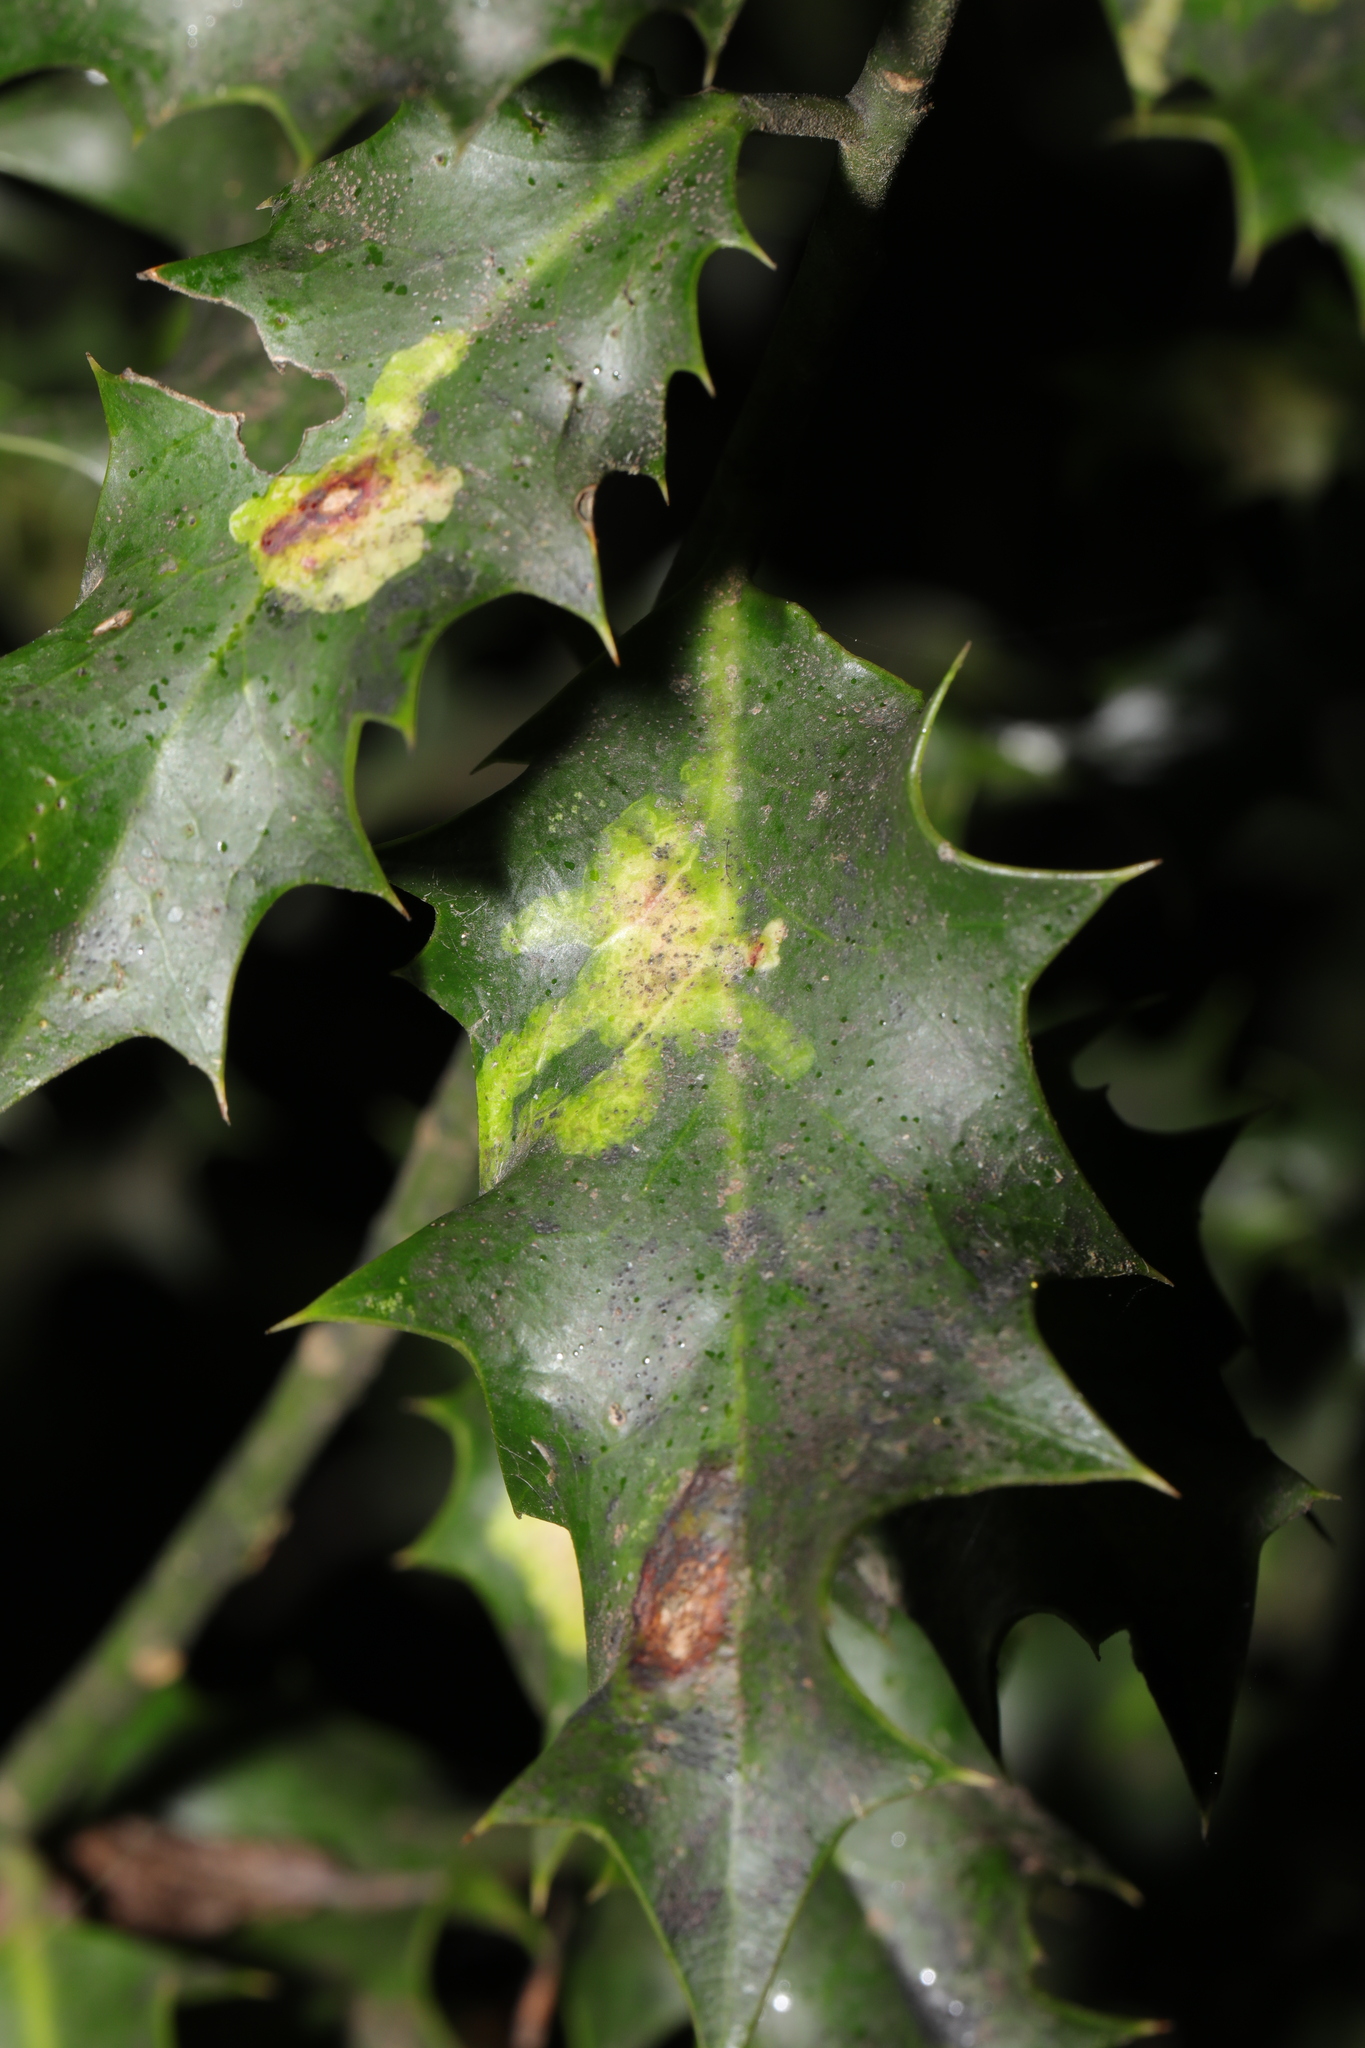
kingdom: Animalia
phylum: Arthropoda
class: Insecta
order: Diptera
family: Agromyzidae
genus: Phytomyza
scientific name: Phytomyza ilicis
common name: Holly leafminer
